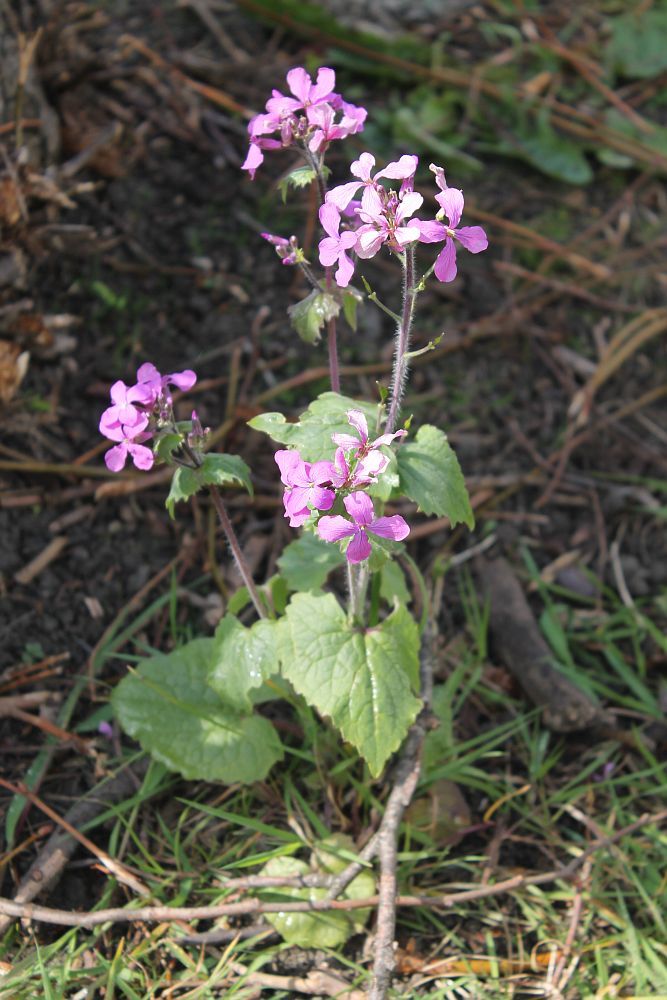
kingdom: Plantae
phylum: Tracheophyta
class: Magnoliopsida
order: Brassicales
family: Brassicaceae
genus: Lunaria
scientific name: Lunaria annua
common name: Honesty
